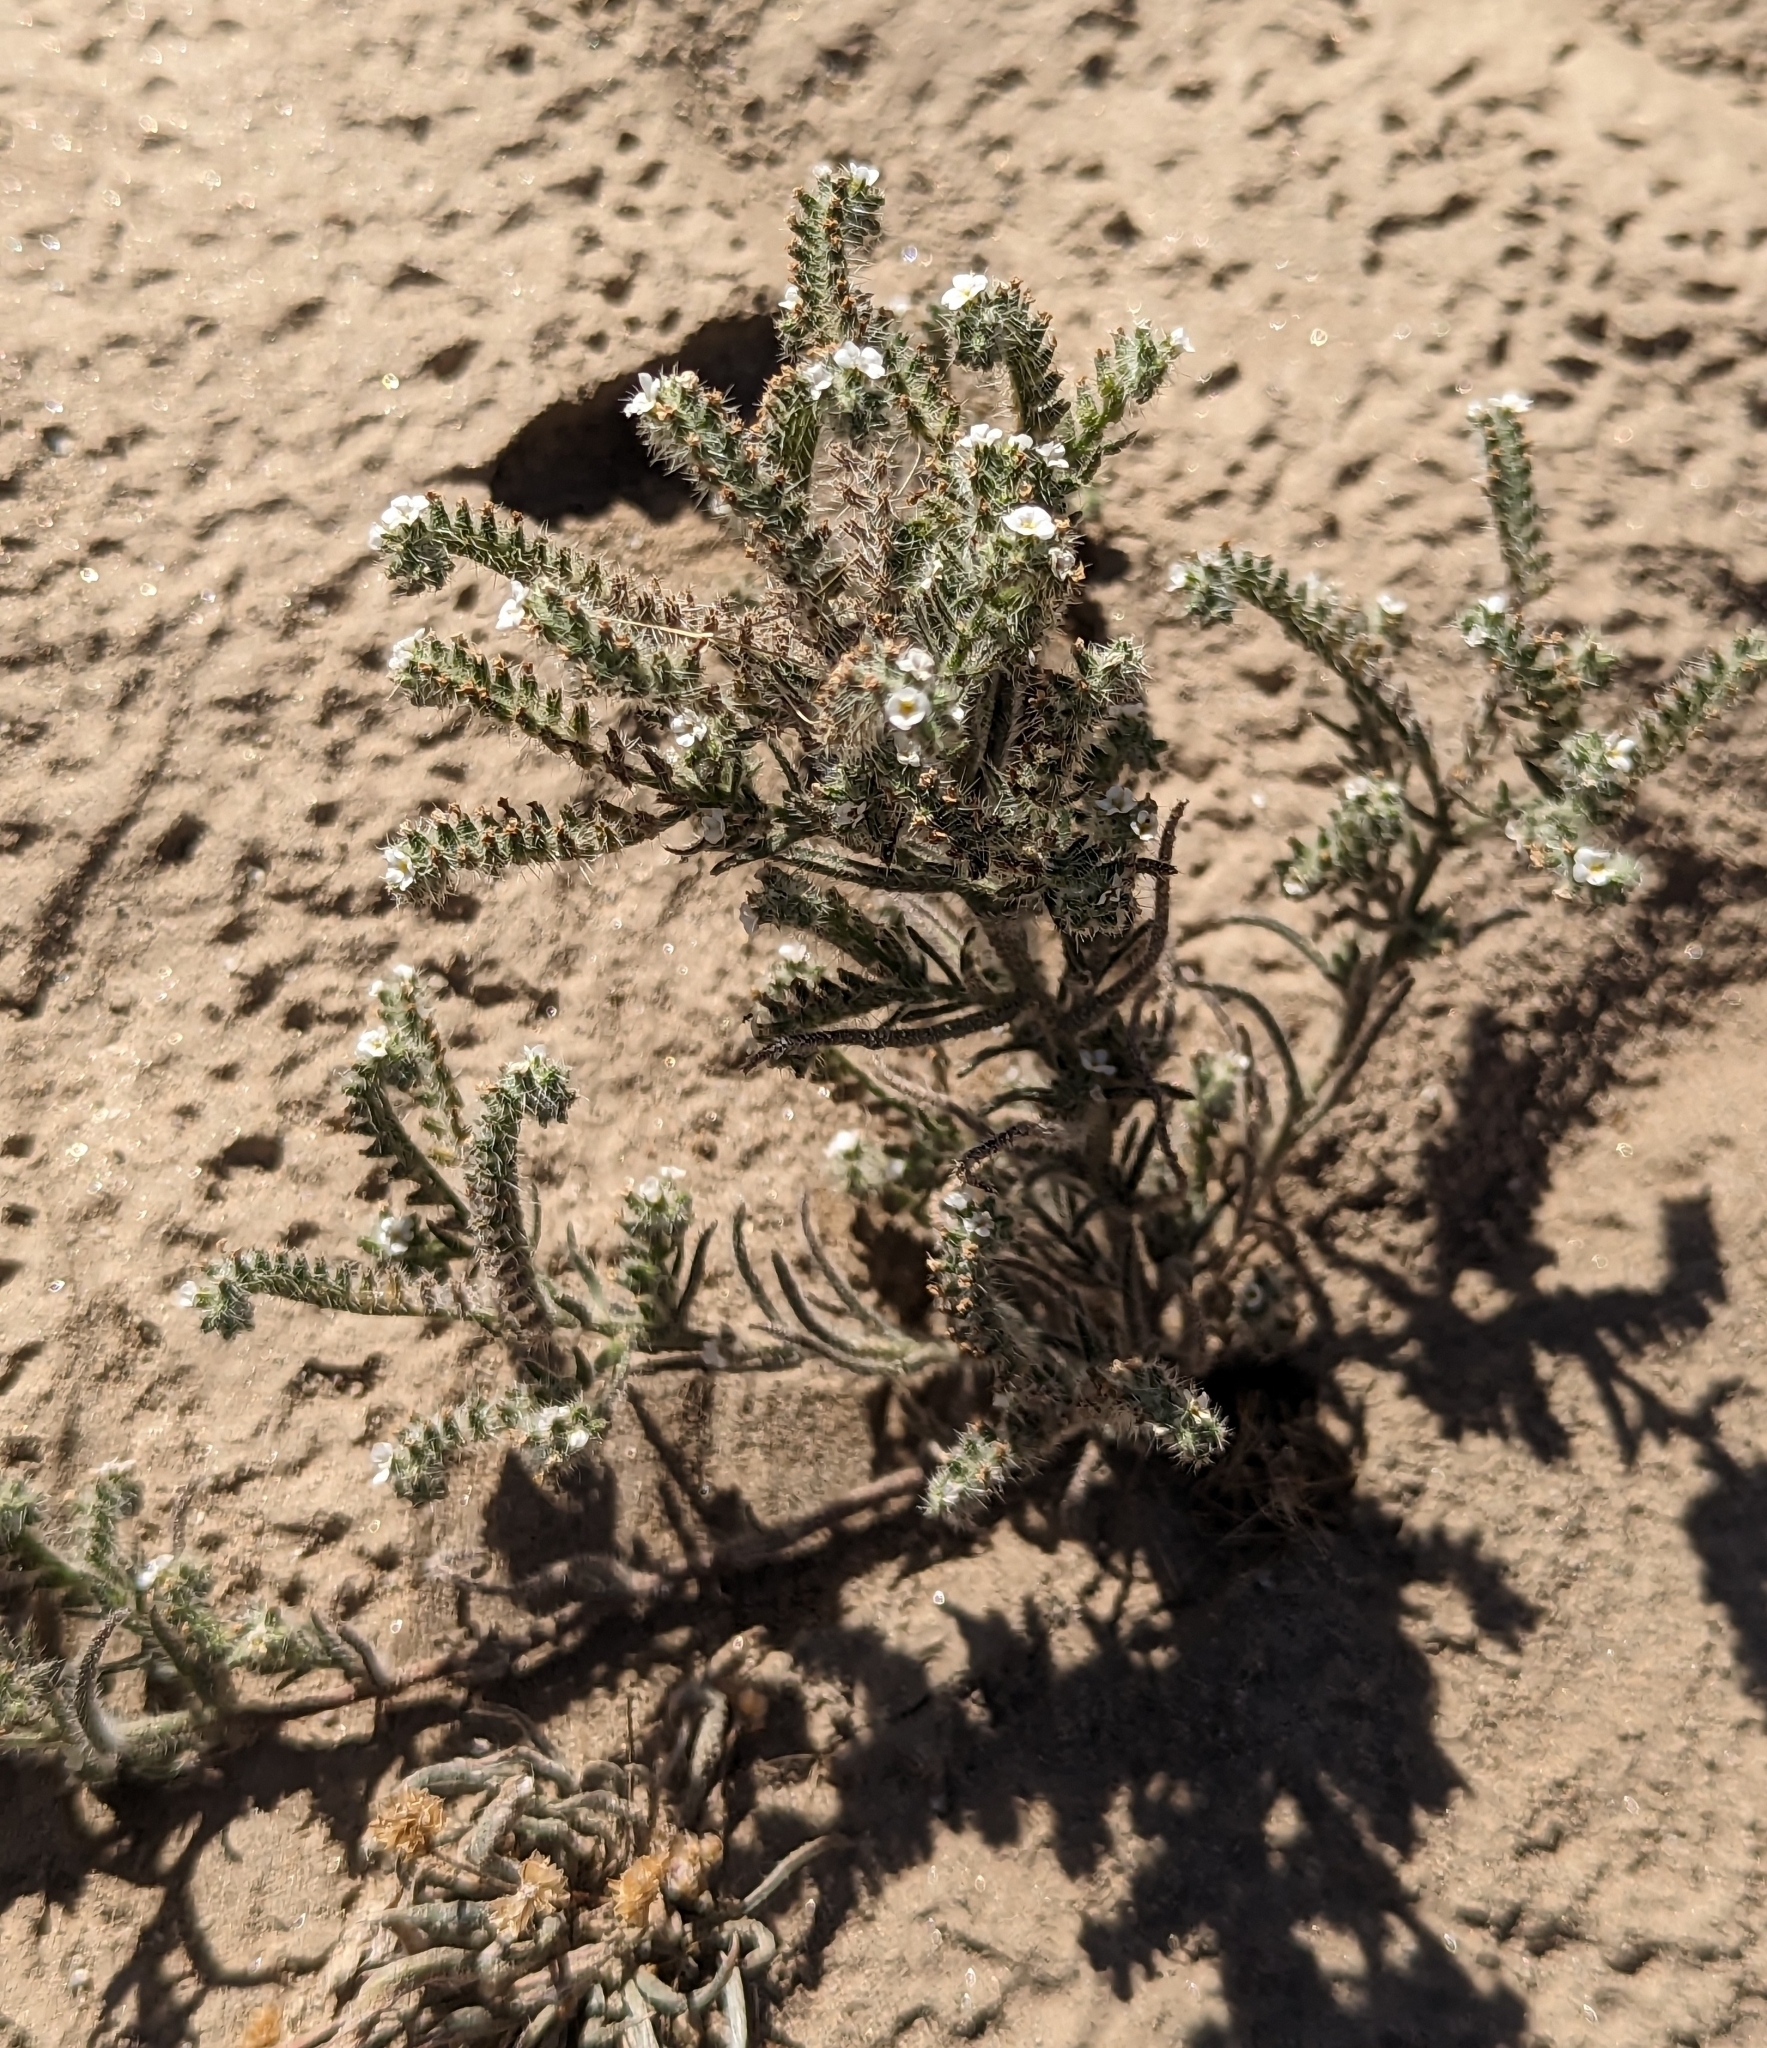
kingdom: Plantae
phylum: Tracheophyta
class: Magnoliopsida
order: Boraginales
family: Boraginaceae
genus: Johnstonella
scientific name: Johnstonella angustifolia
